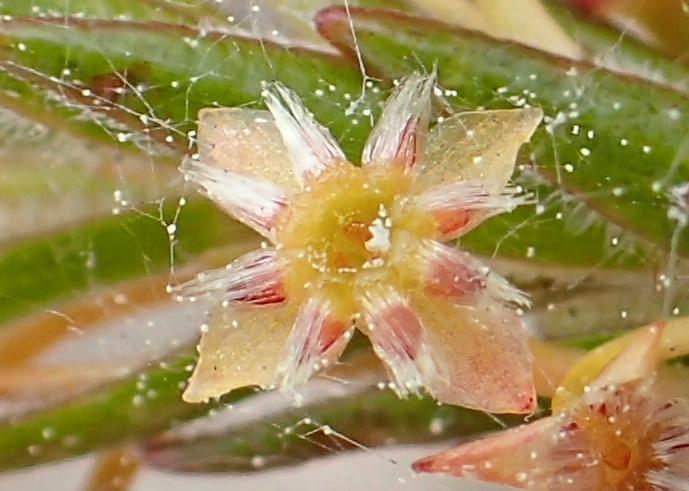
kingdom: Plantae
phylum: Tracheophyta
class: Magnoliopsida
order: Malvales
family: Thymelaeaceae
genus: Struthiola
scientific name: Struthiola parviflora
